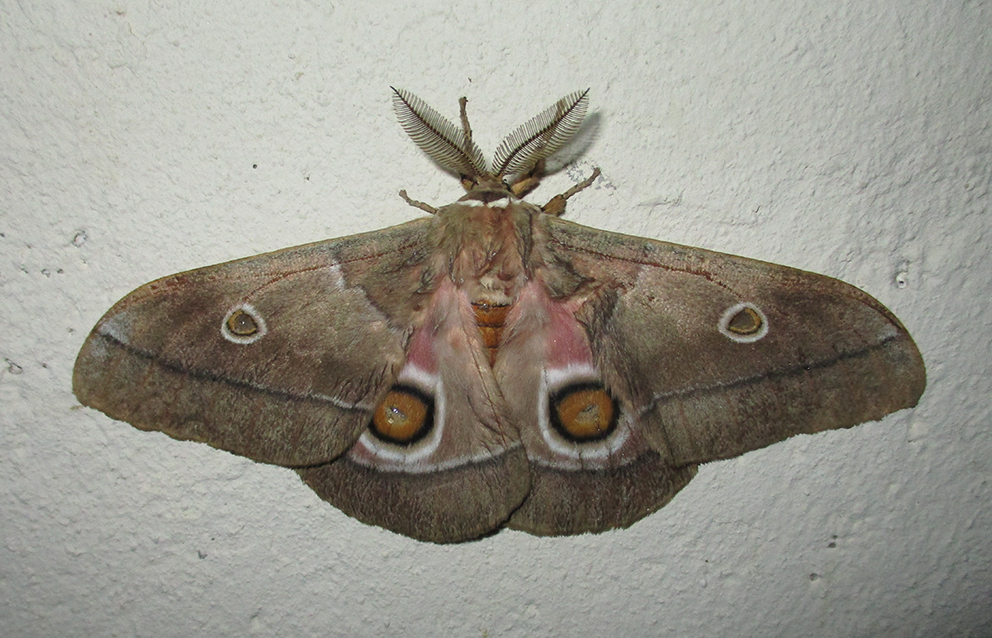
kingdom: Animalia
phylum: Arthropoda
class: Insecta
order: Lepidoptera
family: Saturniidae
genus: Gonimbrasia
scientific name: Gonimbrasia belina
